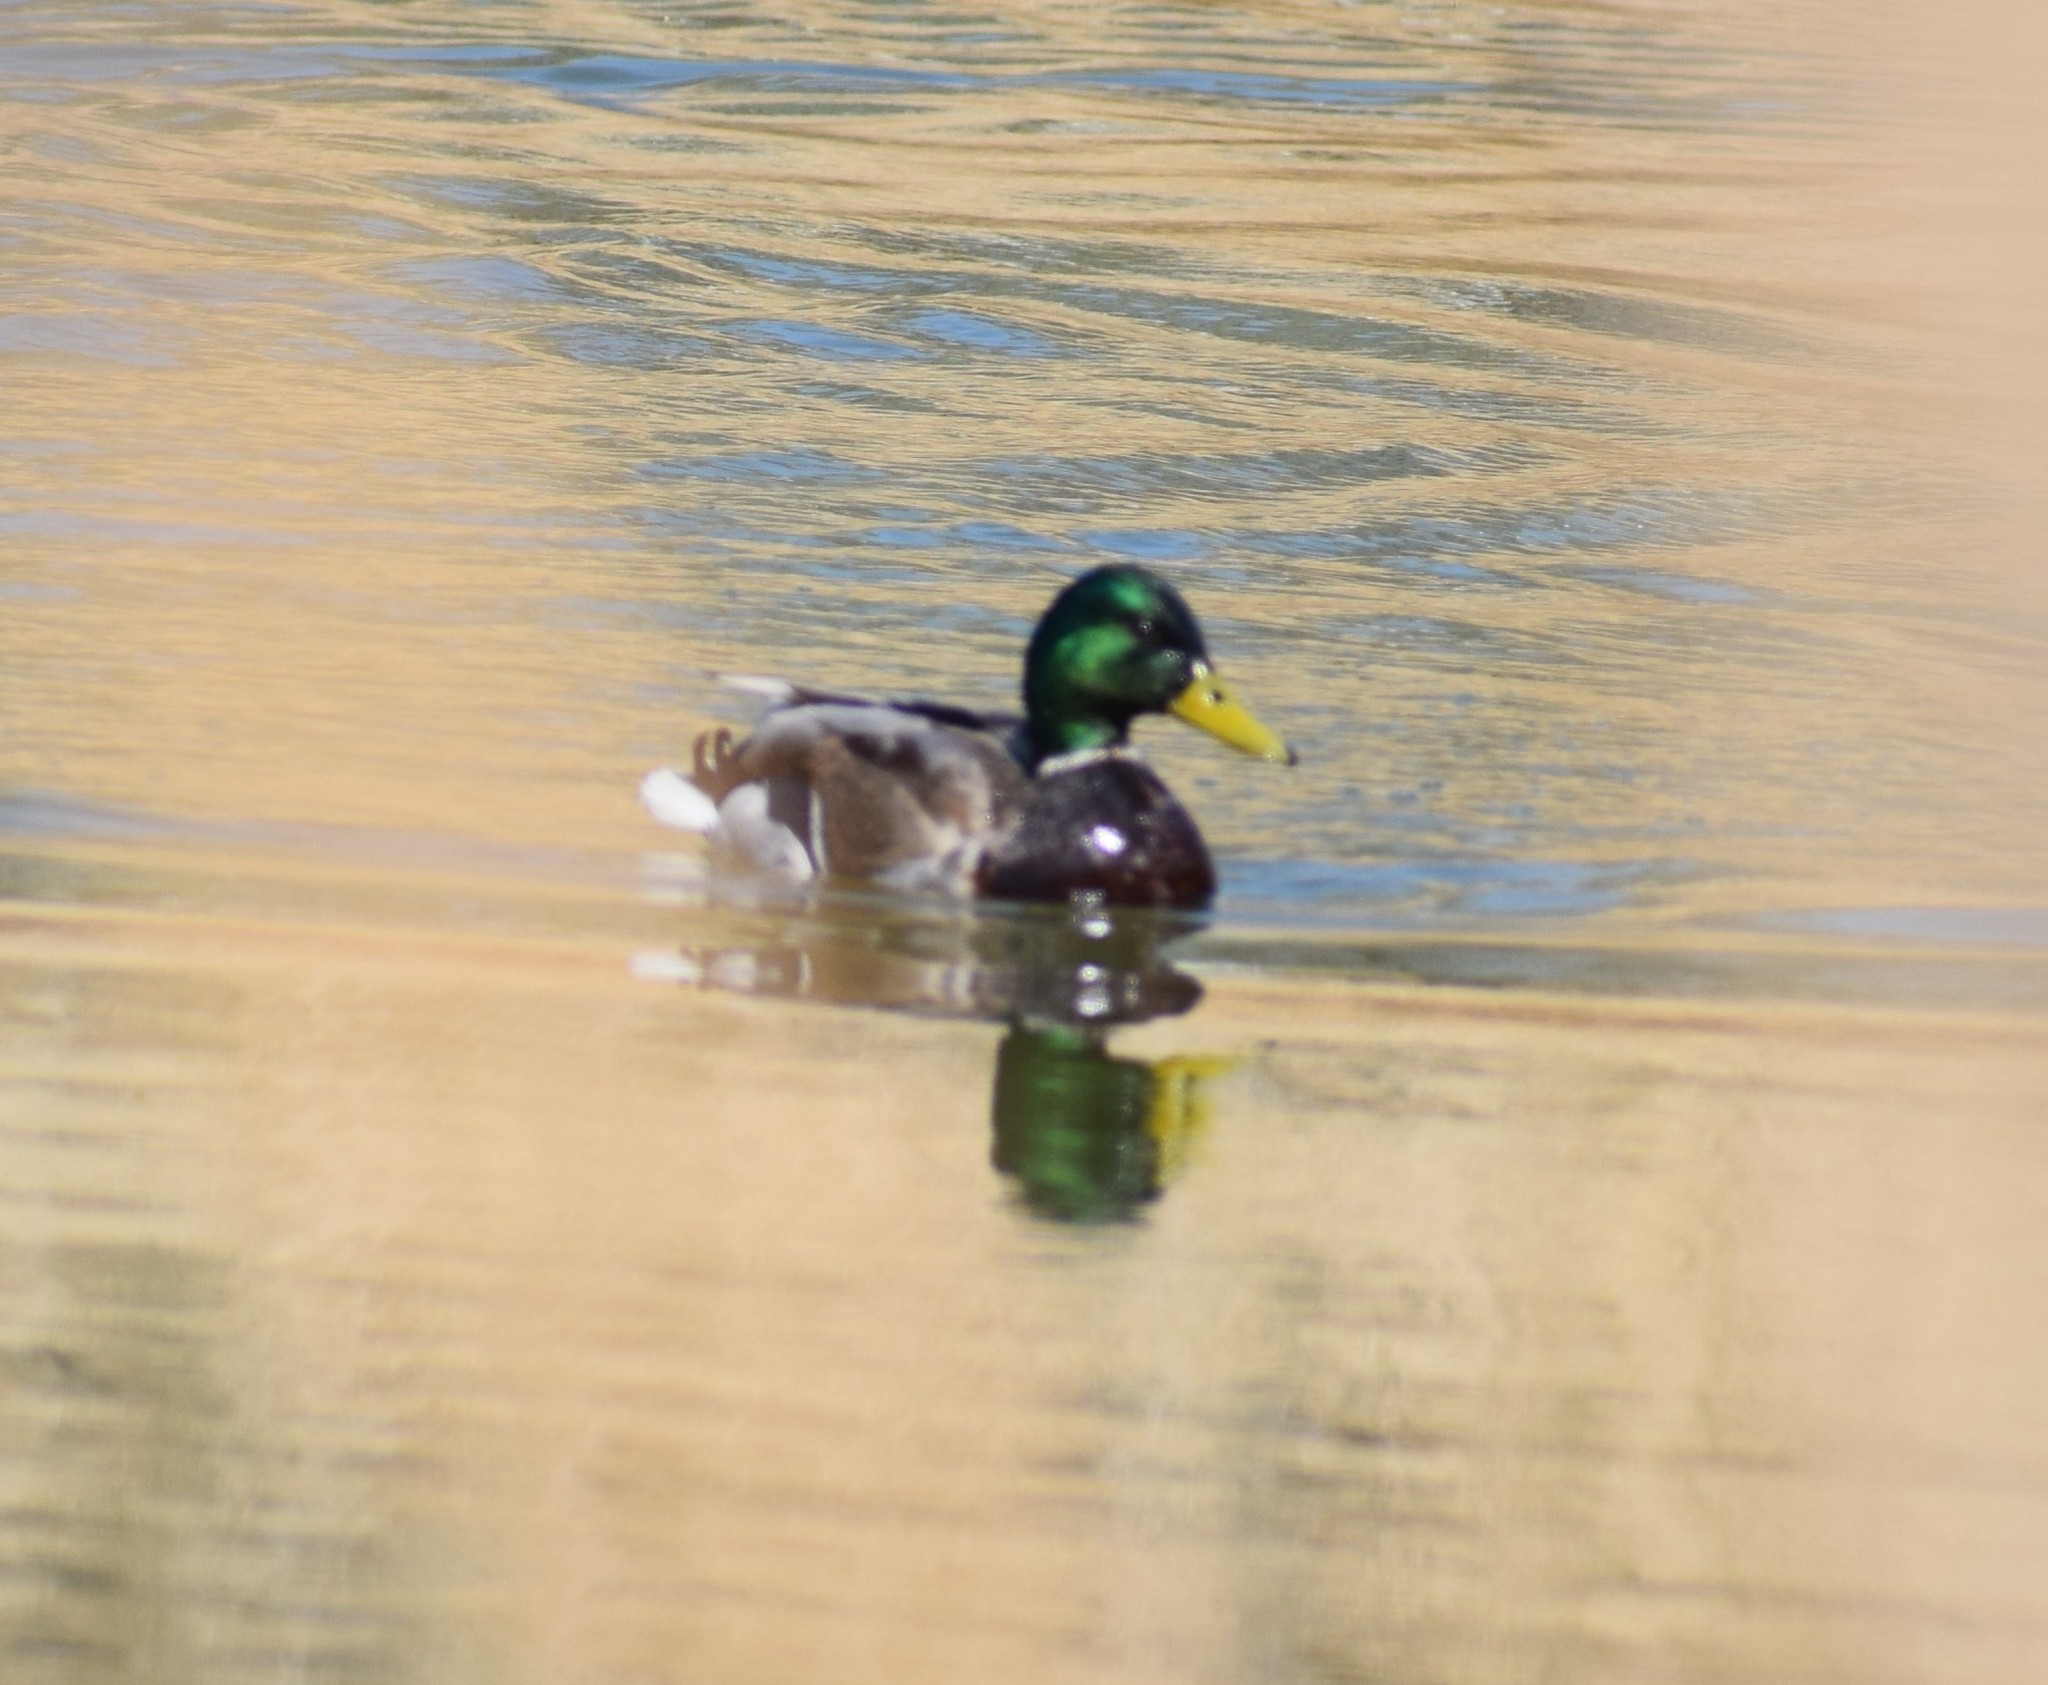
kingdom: Animalia
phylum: Chordata
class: Aves
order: Anseriformes
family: Anatidae
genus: Anas
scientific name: Anas platyrhynchos
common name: Mallard
